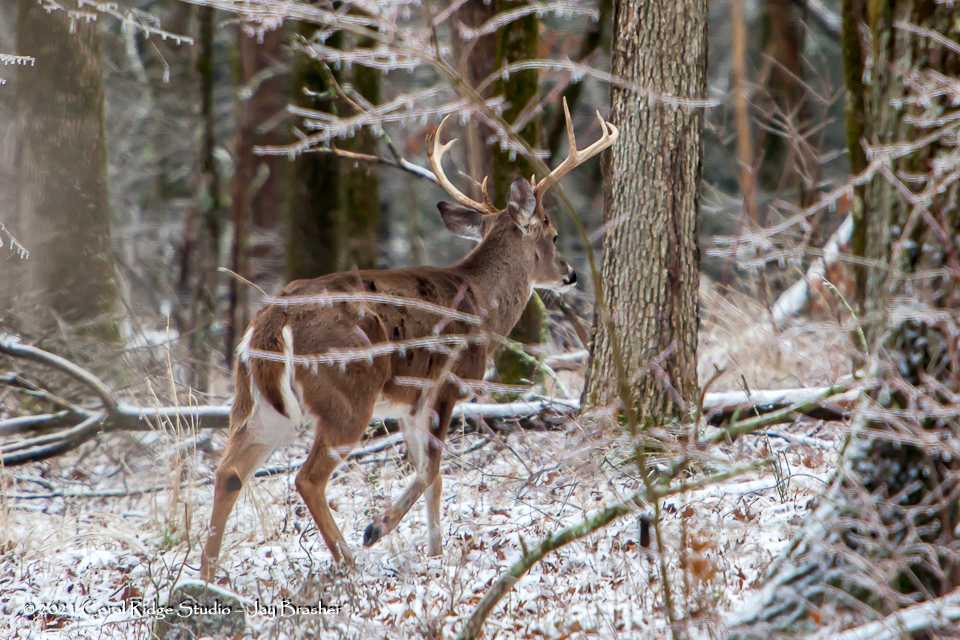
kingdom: Animalia
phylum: Chordata
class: Mammalia
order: Artiodactyla
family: Cervidae
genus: Odocoileus
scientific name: Odocoileus virginianus
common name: White-tailed deer
